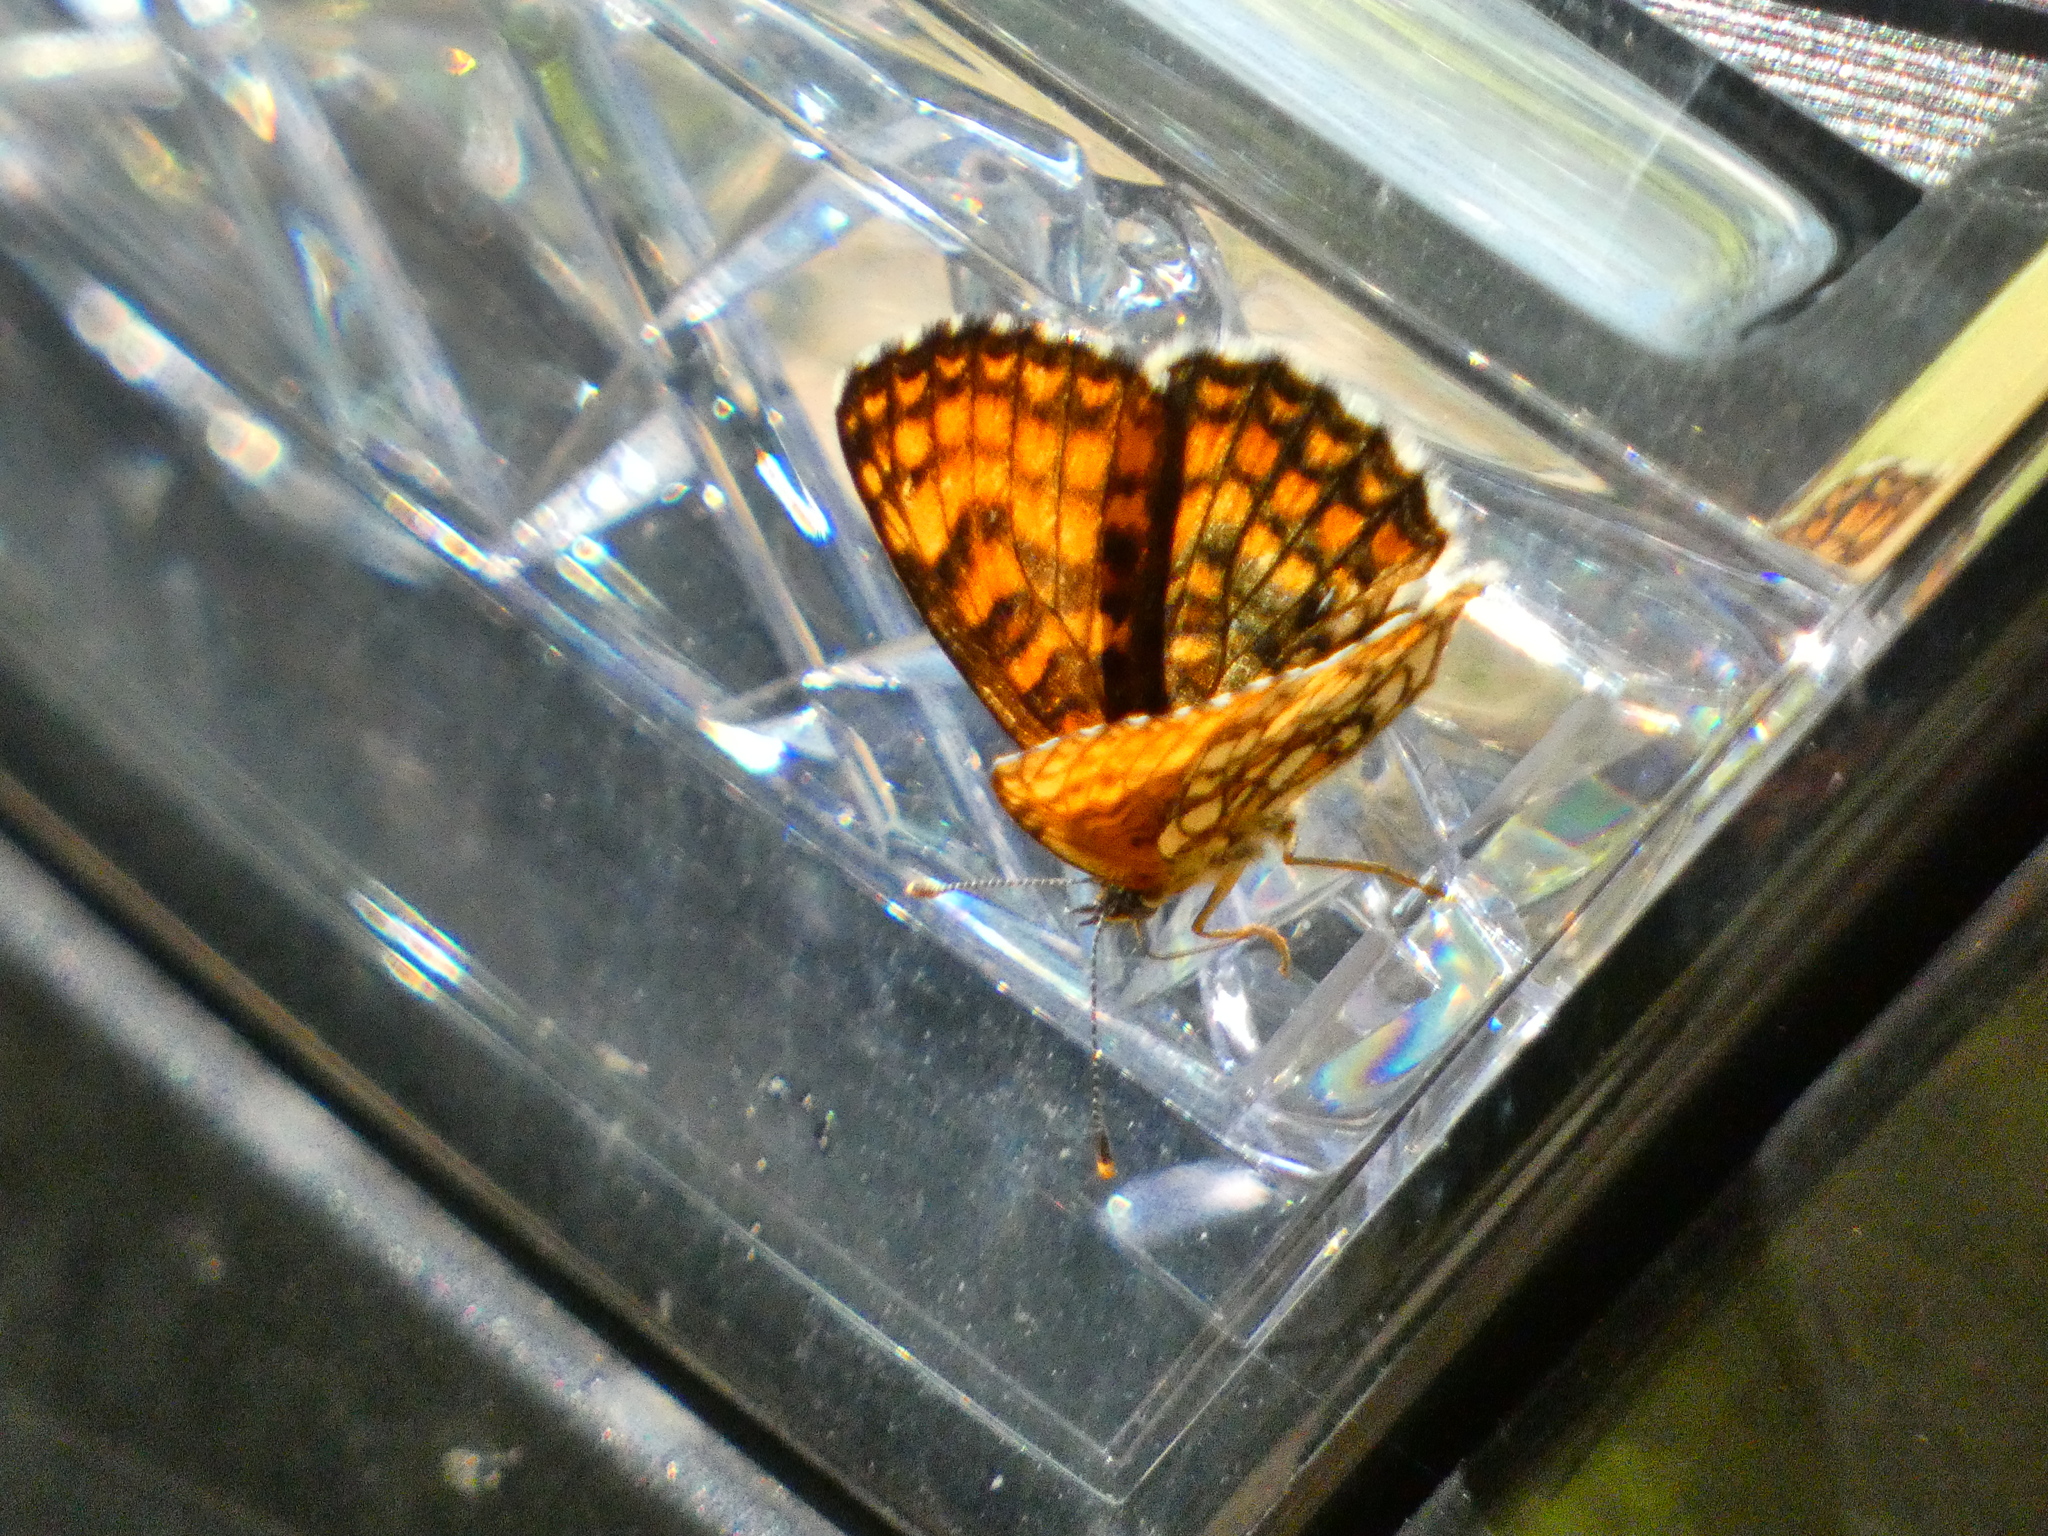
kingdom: Animalia
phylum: Arthropoda
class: Insecta
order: Lepidoptera
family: Nymphalidae
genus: Melitaea
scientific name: Melitaea athalia
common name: Heath fritillary
